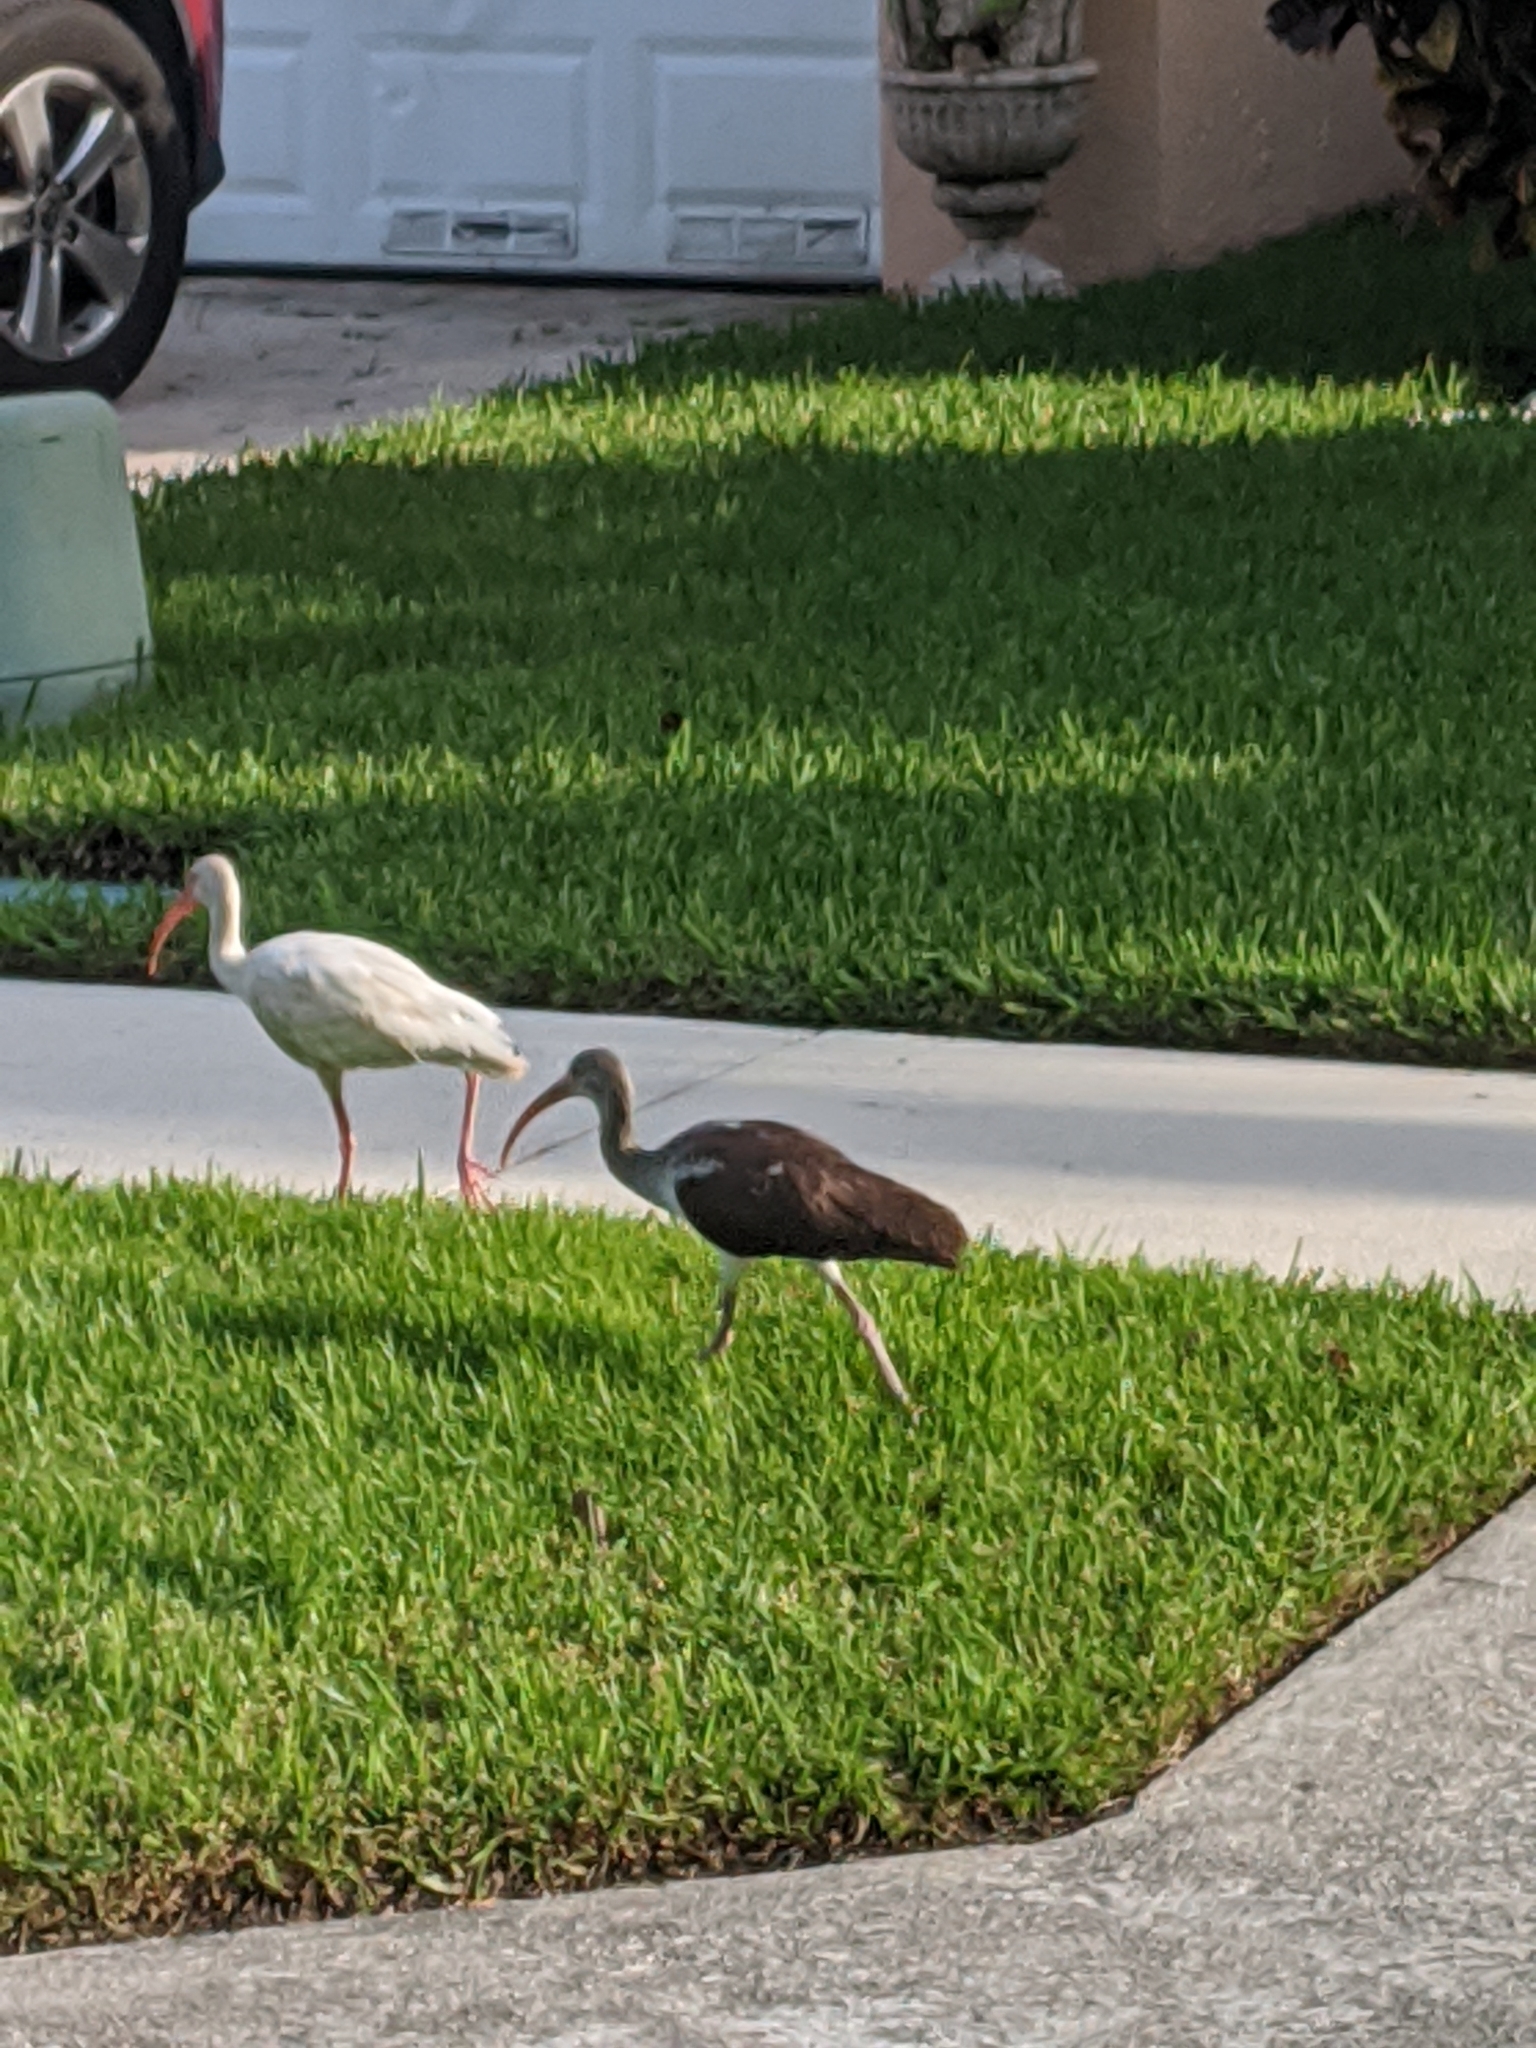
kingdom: Animalia
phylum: Chordata
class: Aves
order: Pelecaniformes
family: Threskiornithidae
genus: Eudocimus
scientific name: Eudocimus albus
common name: White ibis
